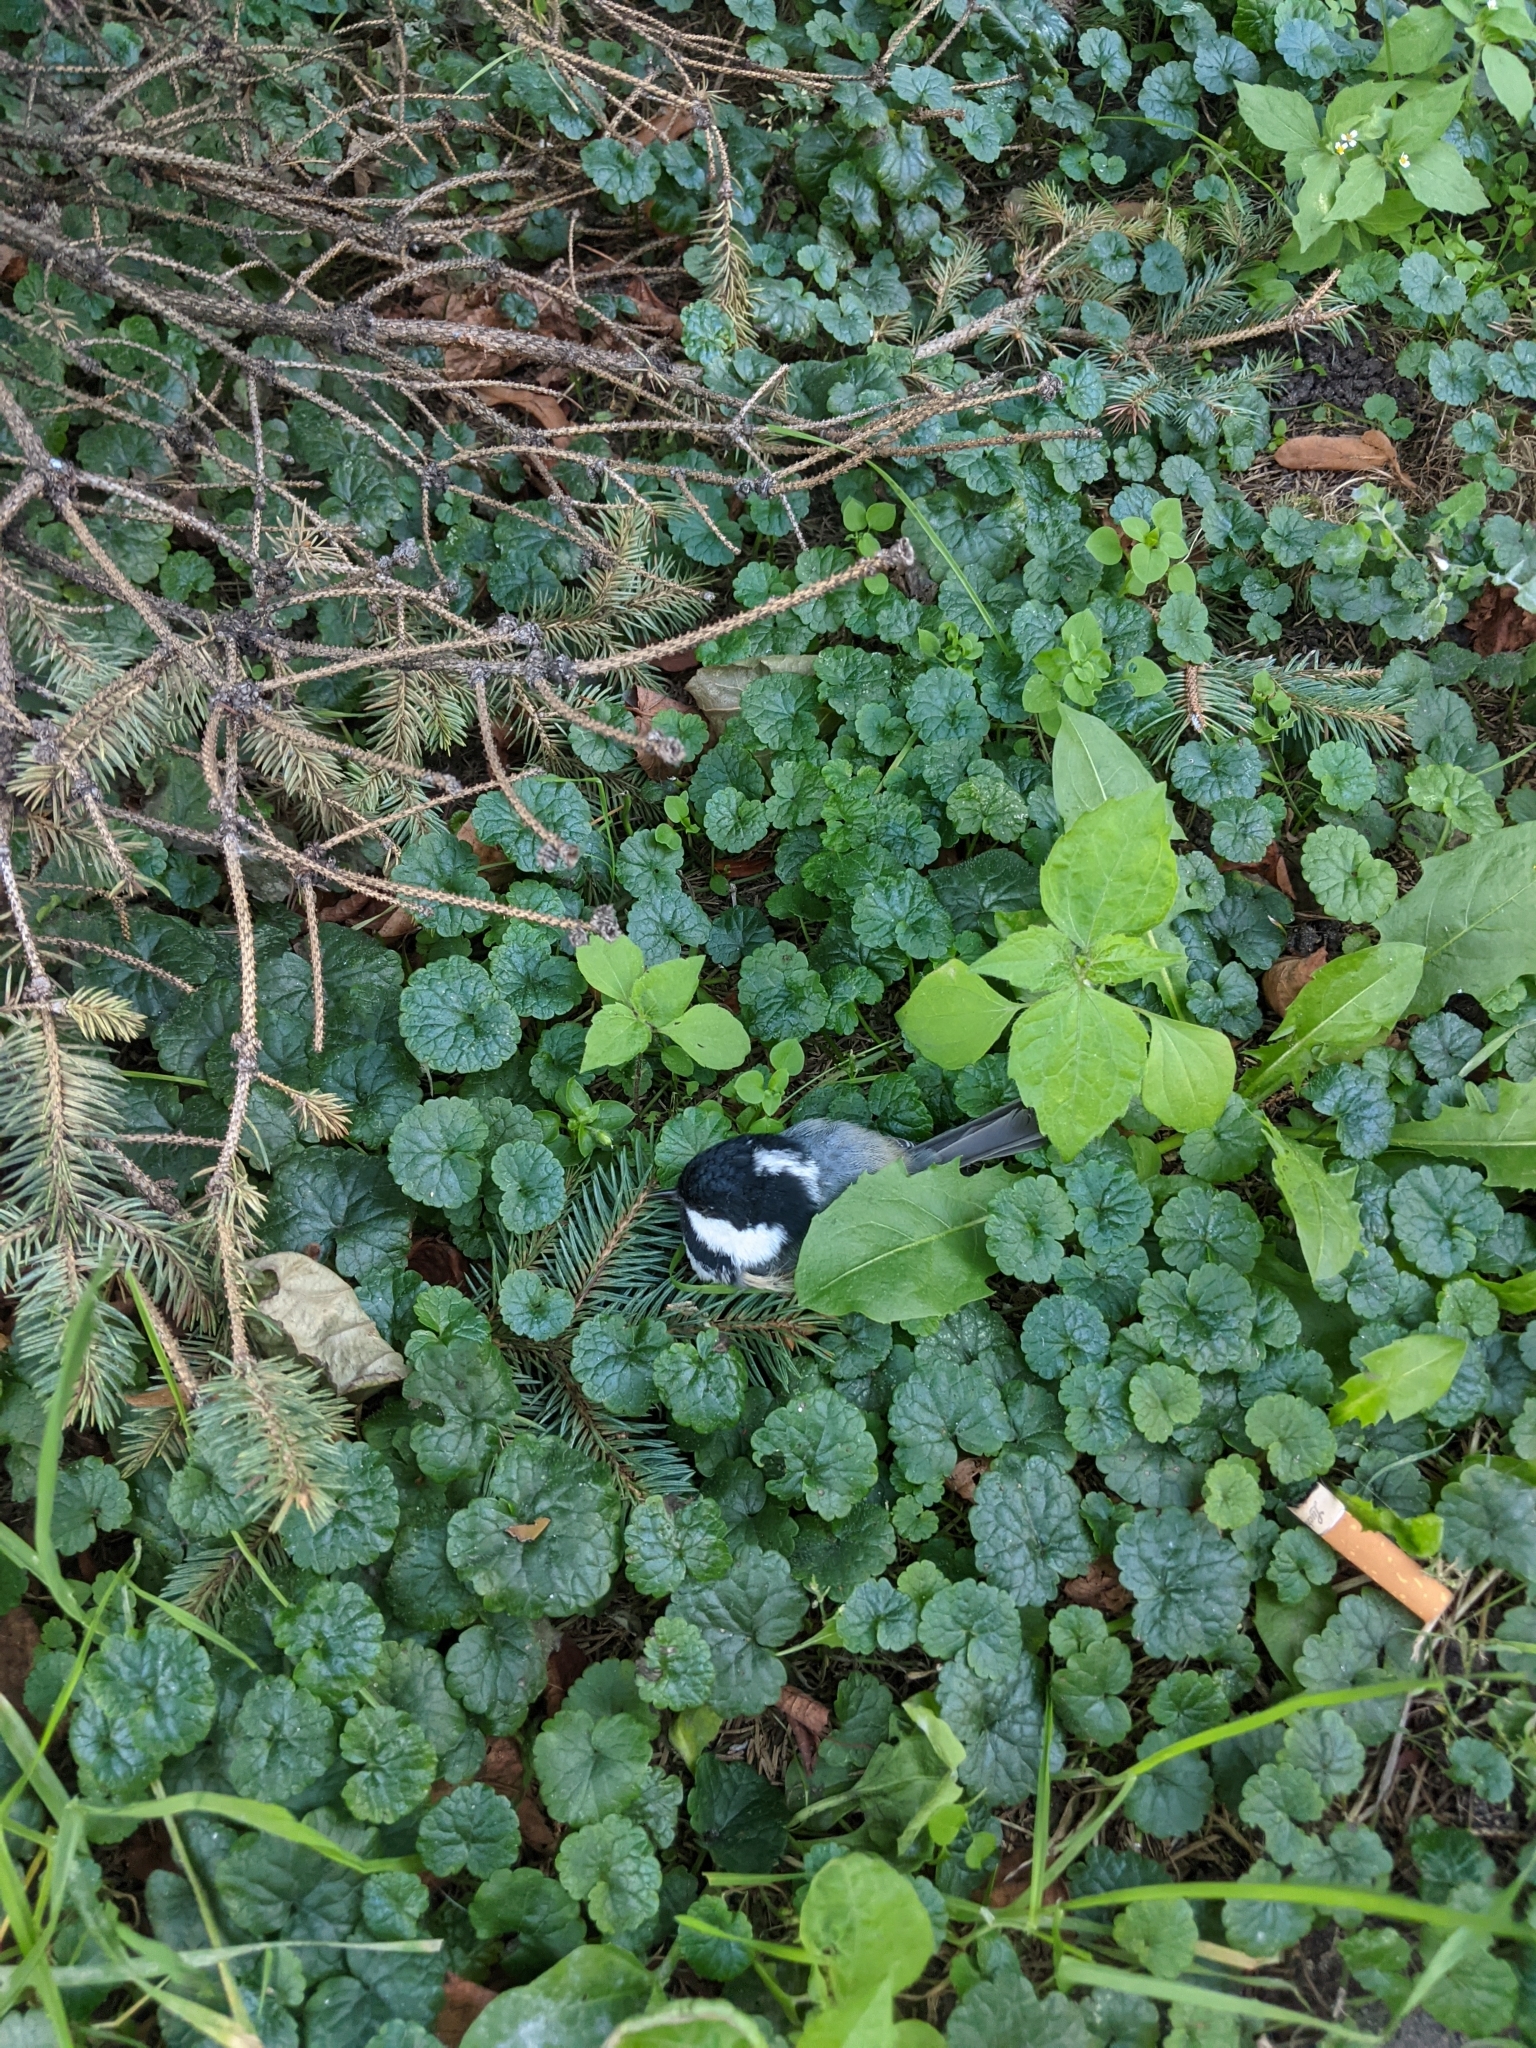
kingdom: Animalia
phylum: Chordata
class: Aves
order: Passeriformes
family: Paridae
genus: Periparus
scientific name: Periparus ater
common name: Coal tit
